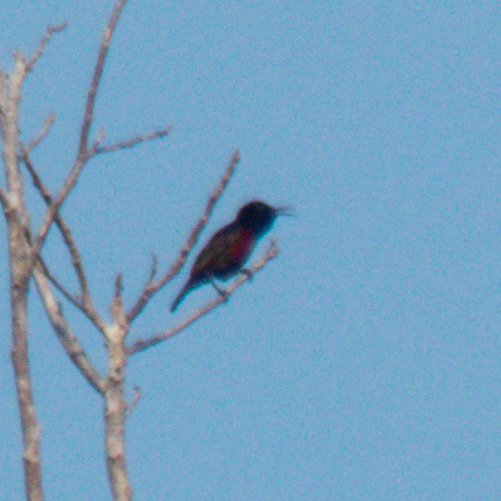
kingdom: Animalia
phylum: Chordata
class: Aves
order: Passeriformes
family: Nectariniidae
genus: Leptocoma
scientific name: Leptocoma brasiliana
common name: Van hasselt's sunbird
